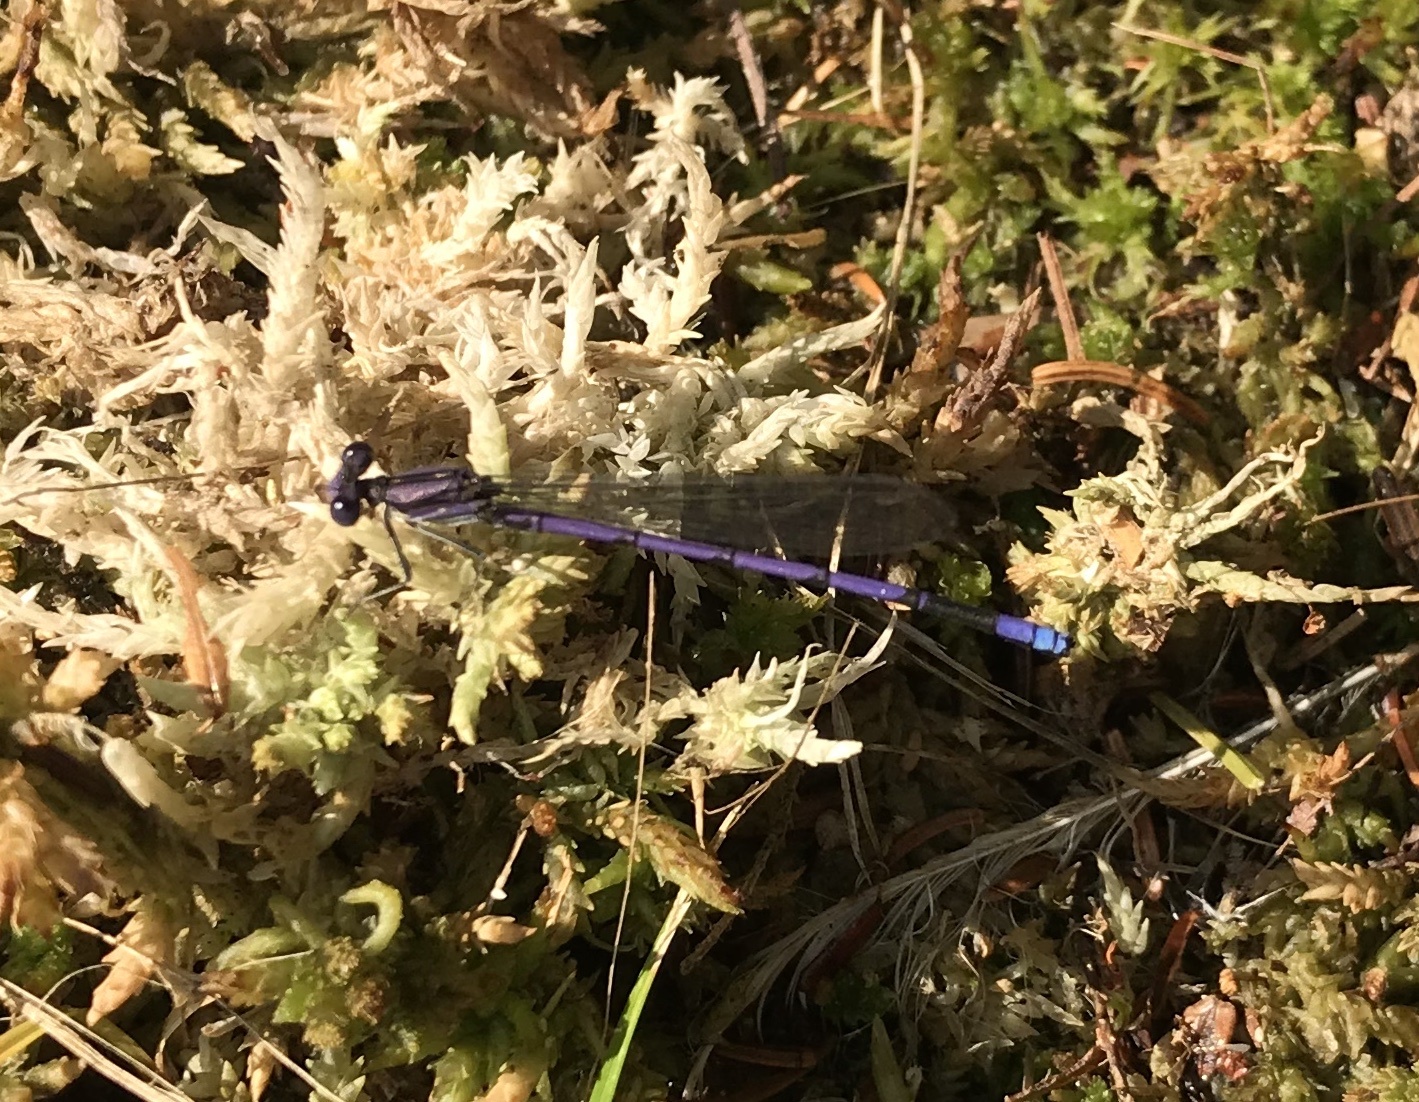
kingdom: Animalia
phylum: Arthropoda
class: Insecta
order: Odonata
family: Coenagrionidae
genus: Argia
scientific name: Argia fumipennis
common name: Variable dancer
